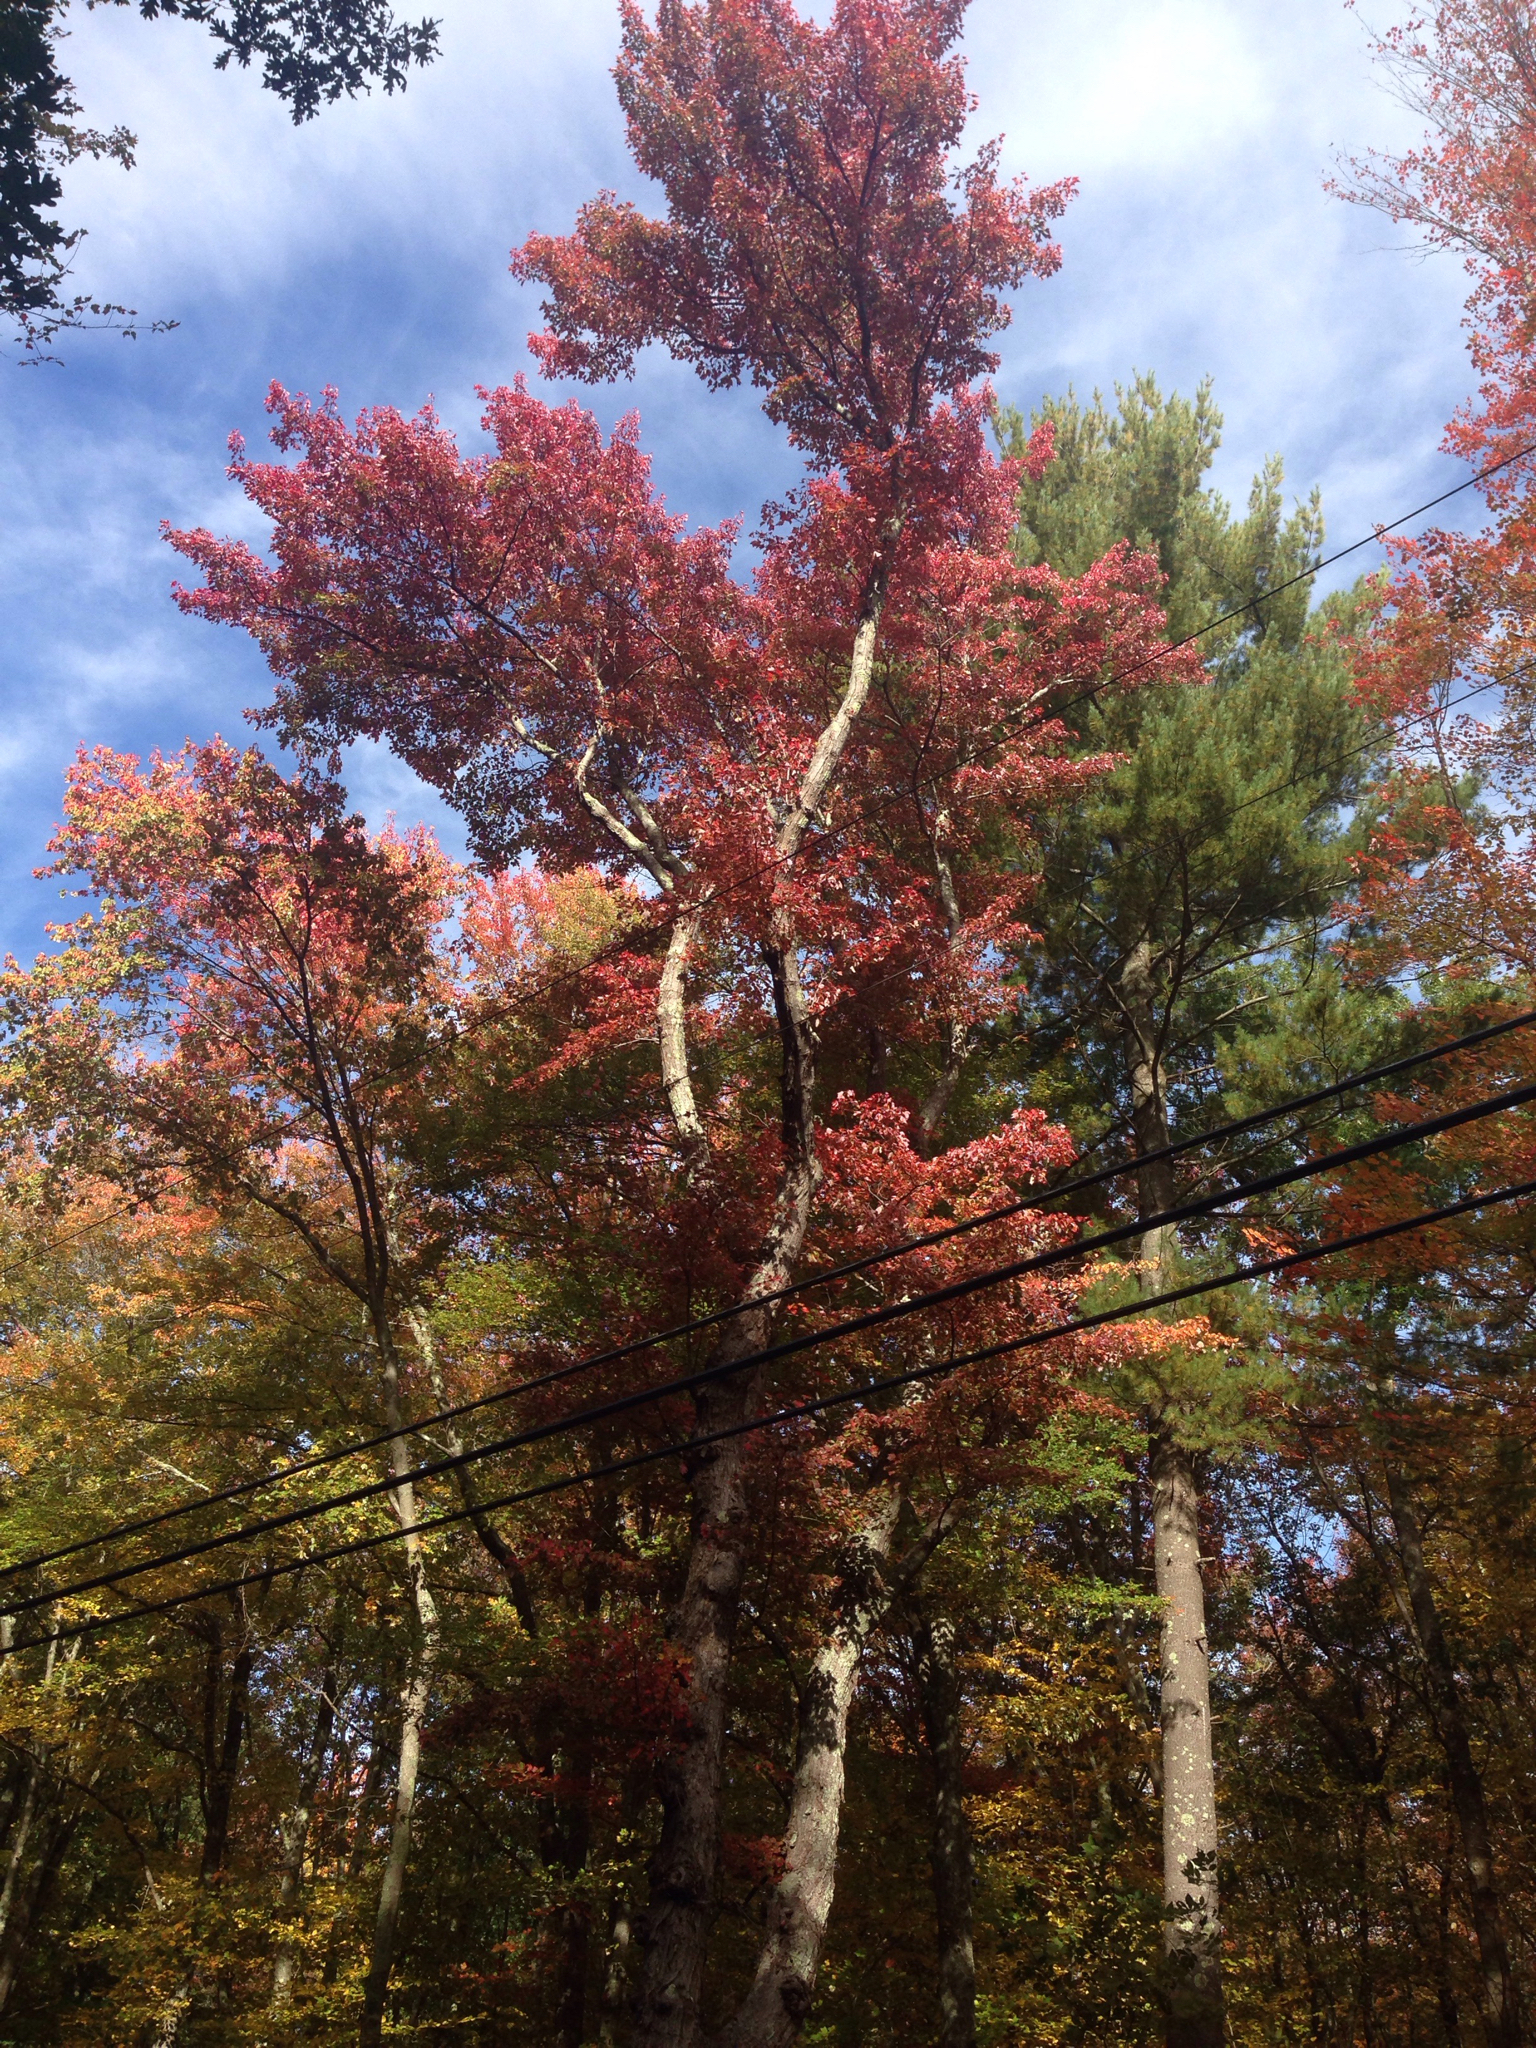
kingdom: Plantae
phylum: Tracheophyta
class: Magnoliopsida
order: Sapindales
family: Sapindaceae
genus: Acer
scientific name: Acer rubrum
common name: Red maple
